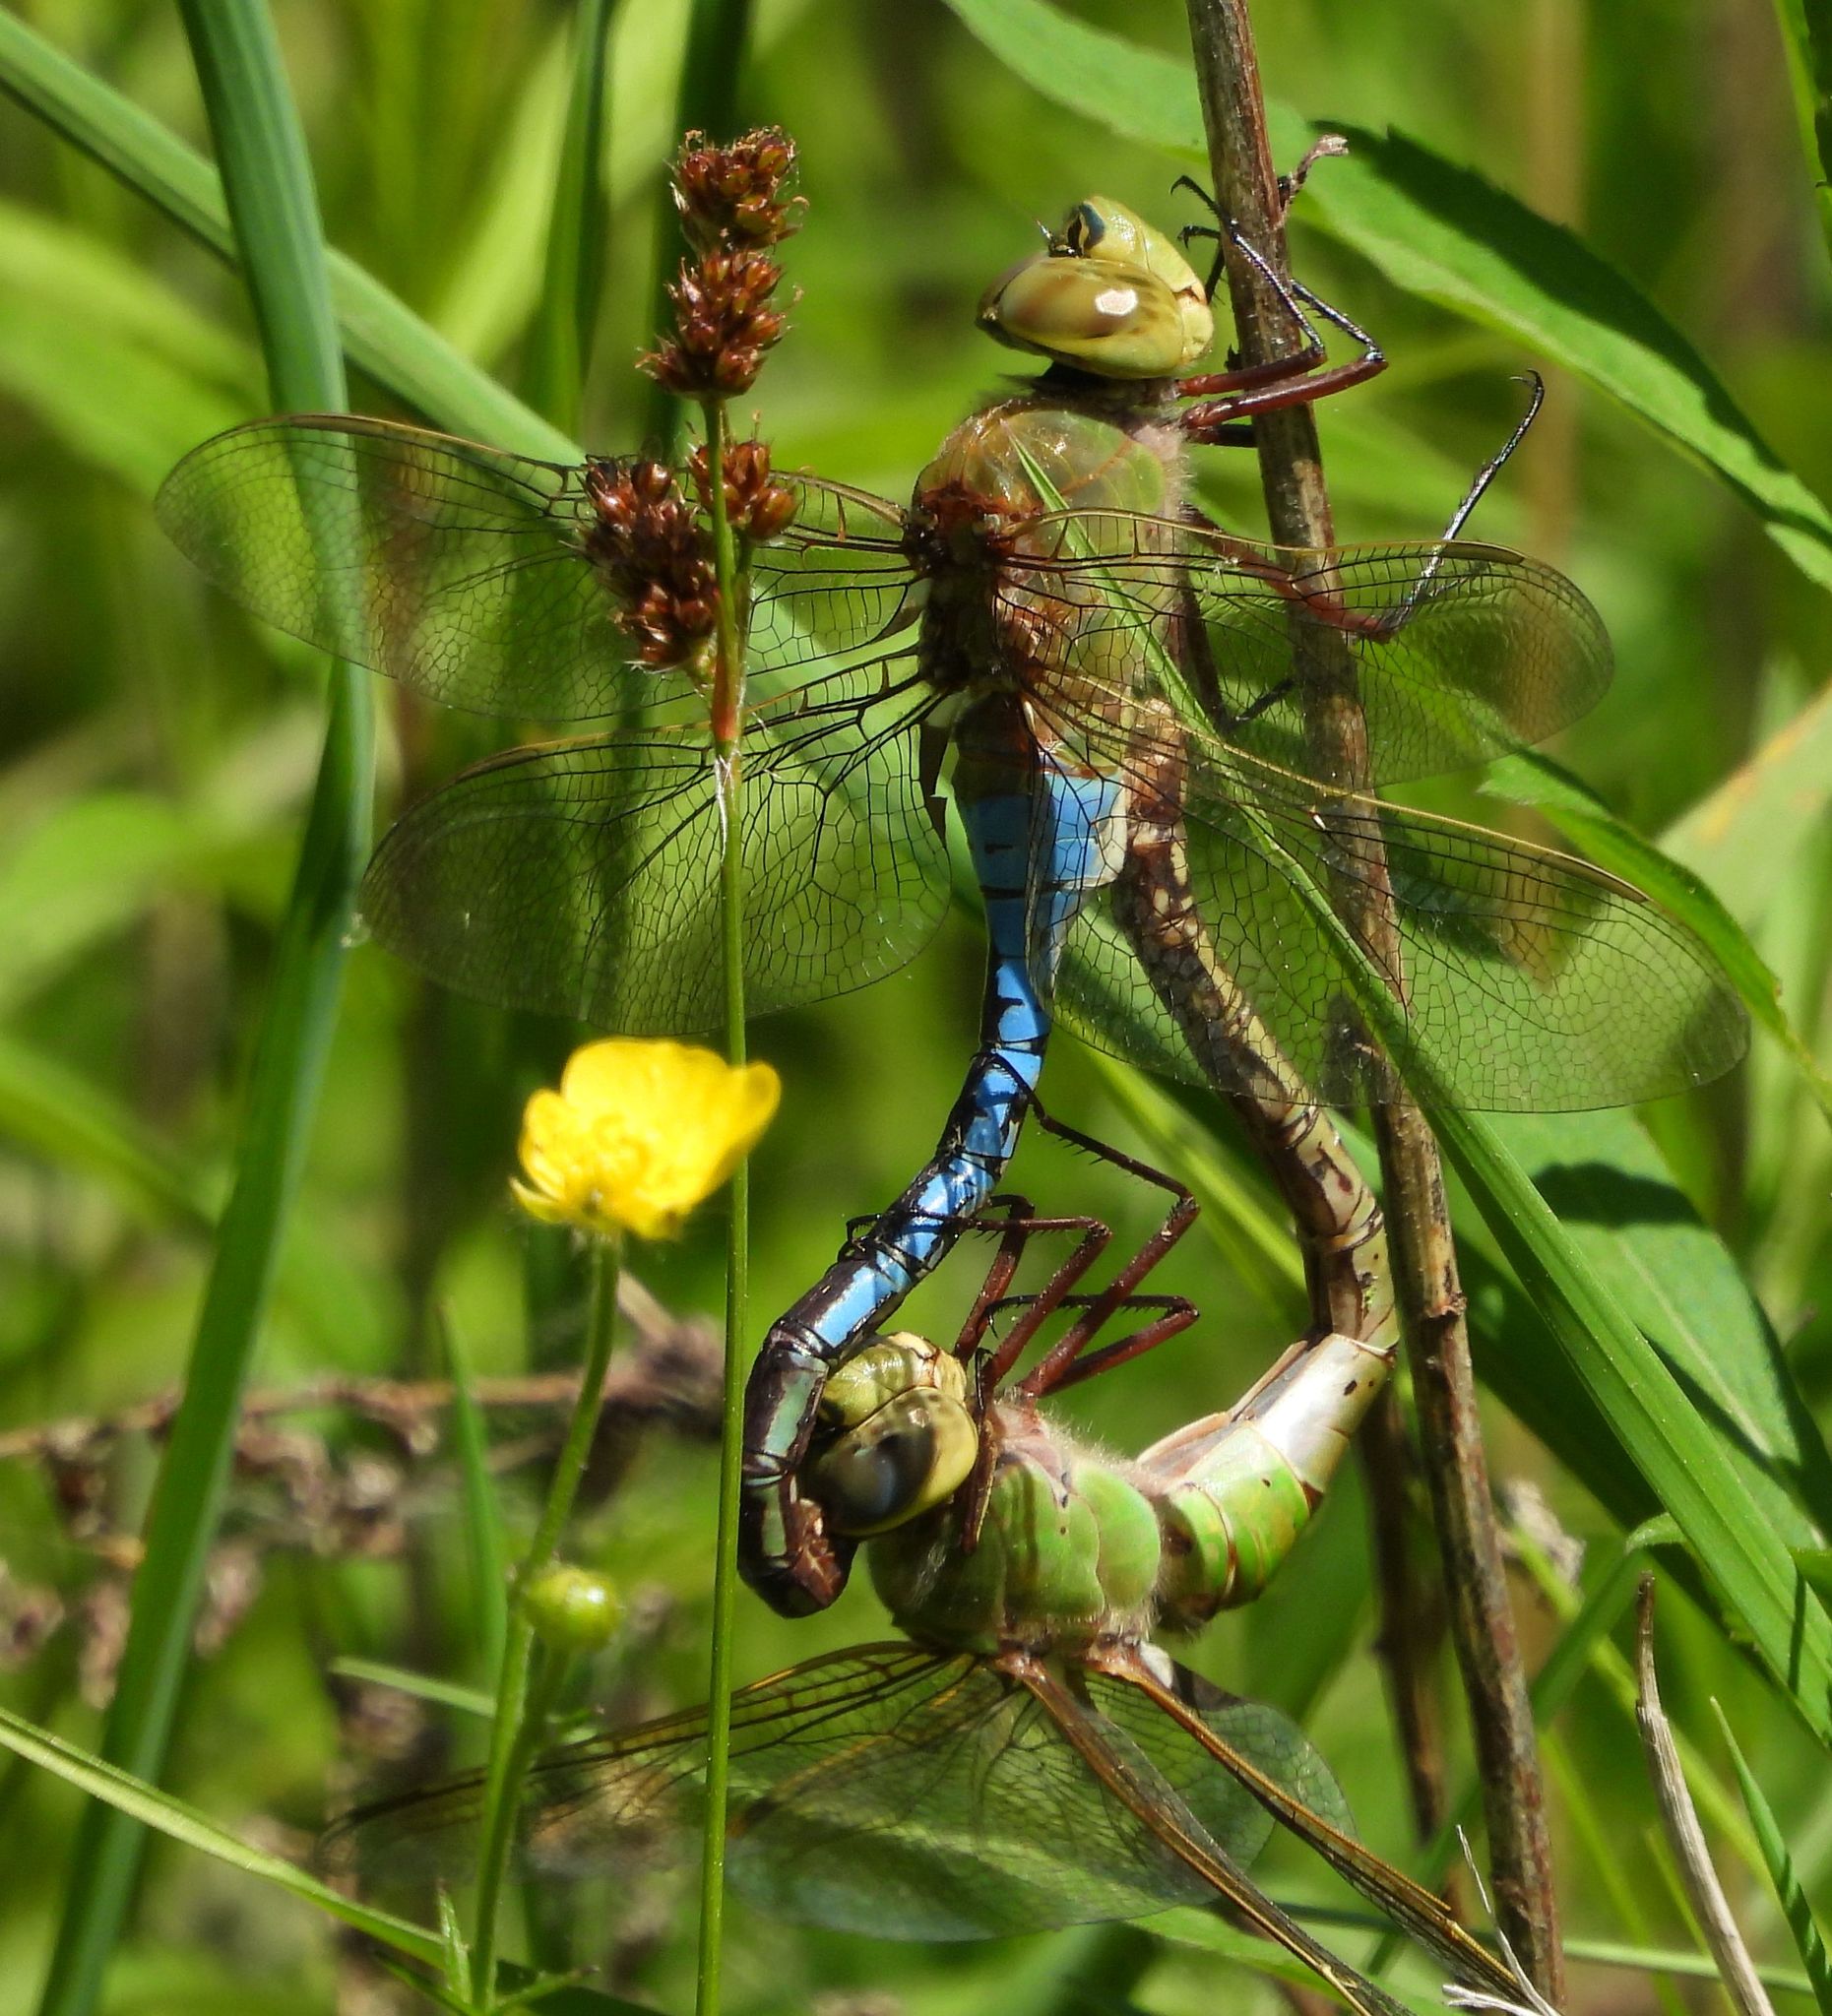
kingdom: Animalia
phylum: Arthropoda
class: Insecta
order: Odonata
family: Aeshnidae
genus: Anax
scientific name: Anax junius
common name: Common green darner
